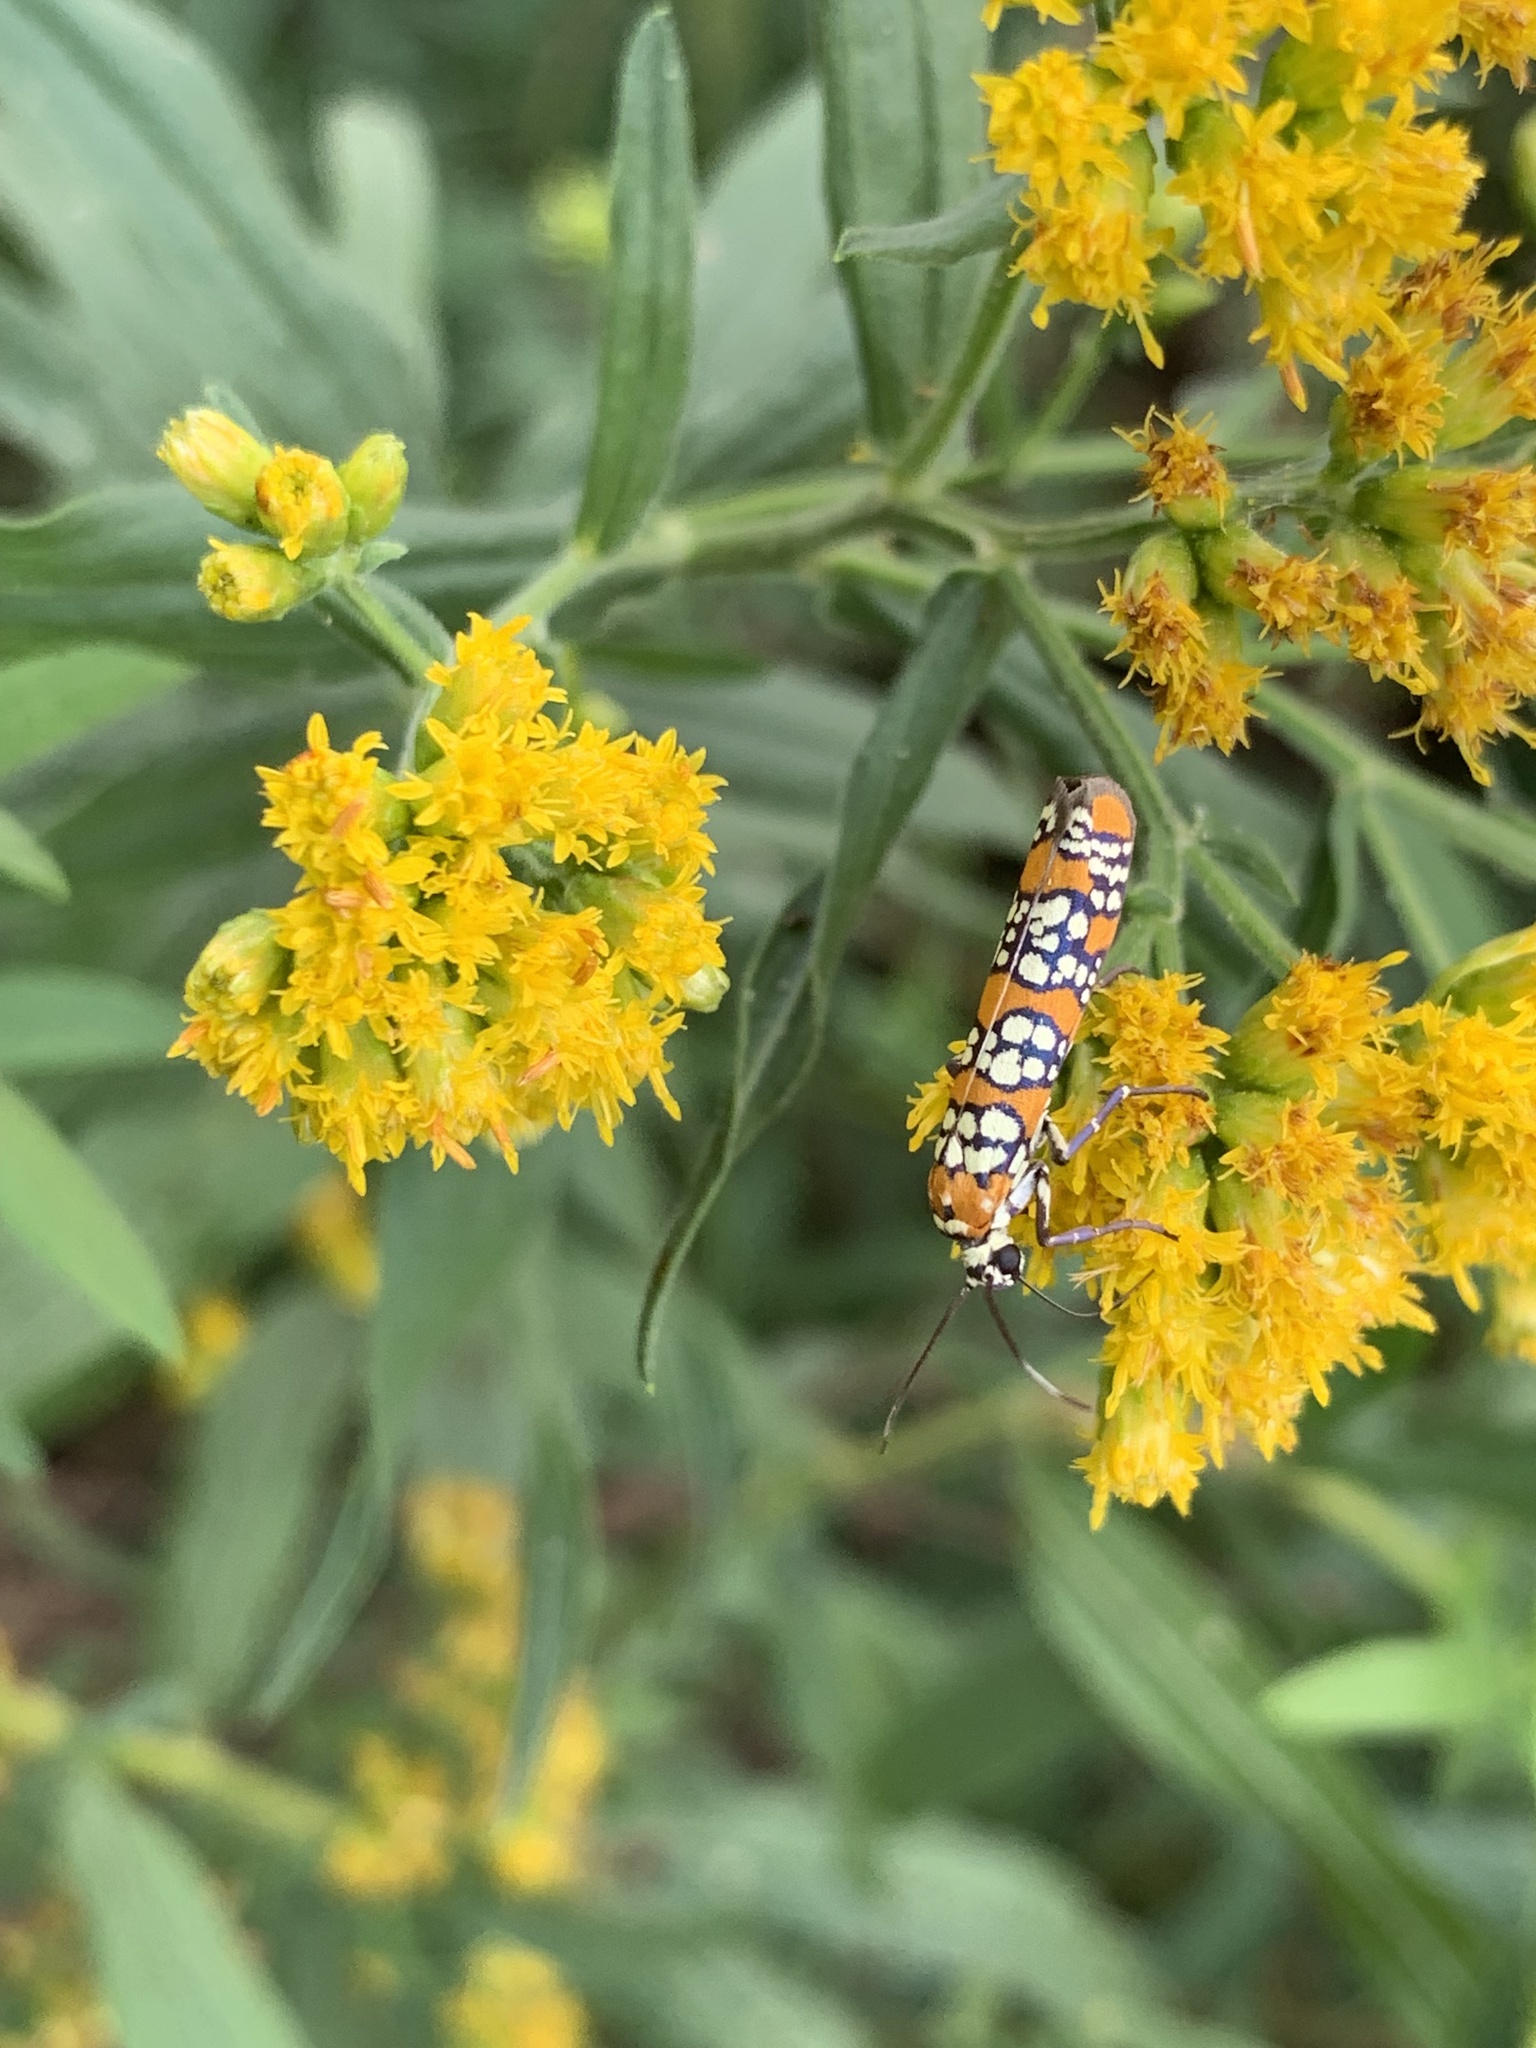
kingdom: Animalia
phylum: Arthropoda
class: Insecta
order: Lepidoptera
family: Attevidae
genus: Atteva
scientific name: Atteva punctella
